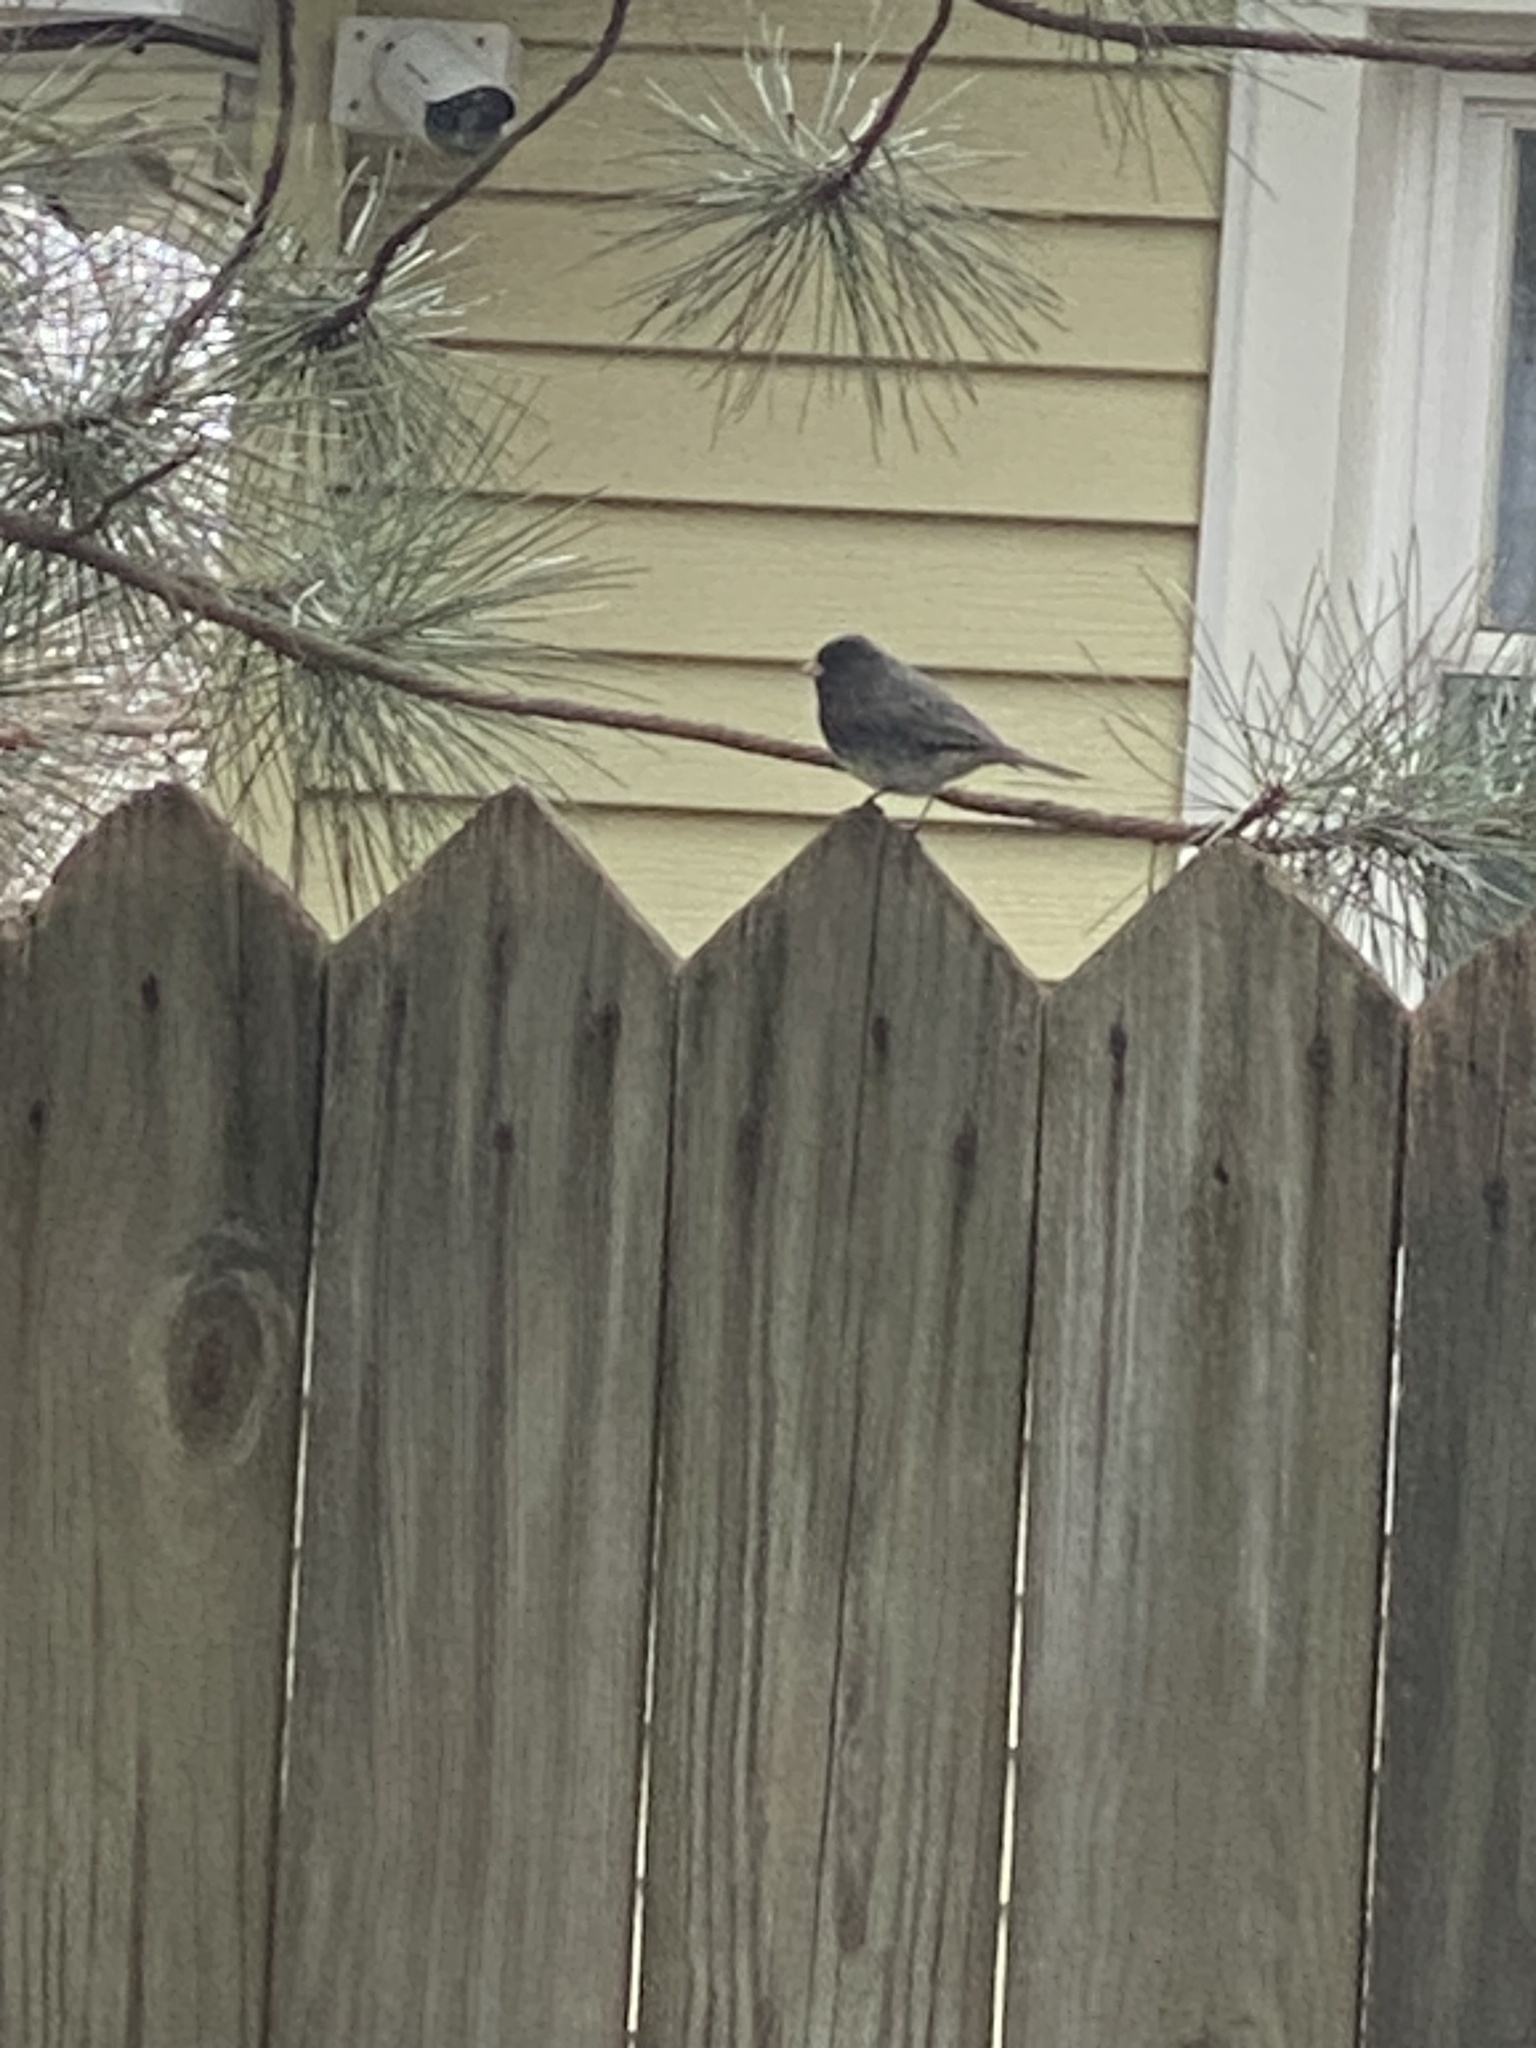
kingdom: Animalia
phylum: Chordata
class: Aves
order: Passeriformes
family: Passerellidae
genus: Junco
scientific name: Junco hyemalis
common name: Dark-eyed junco
